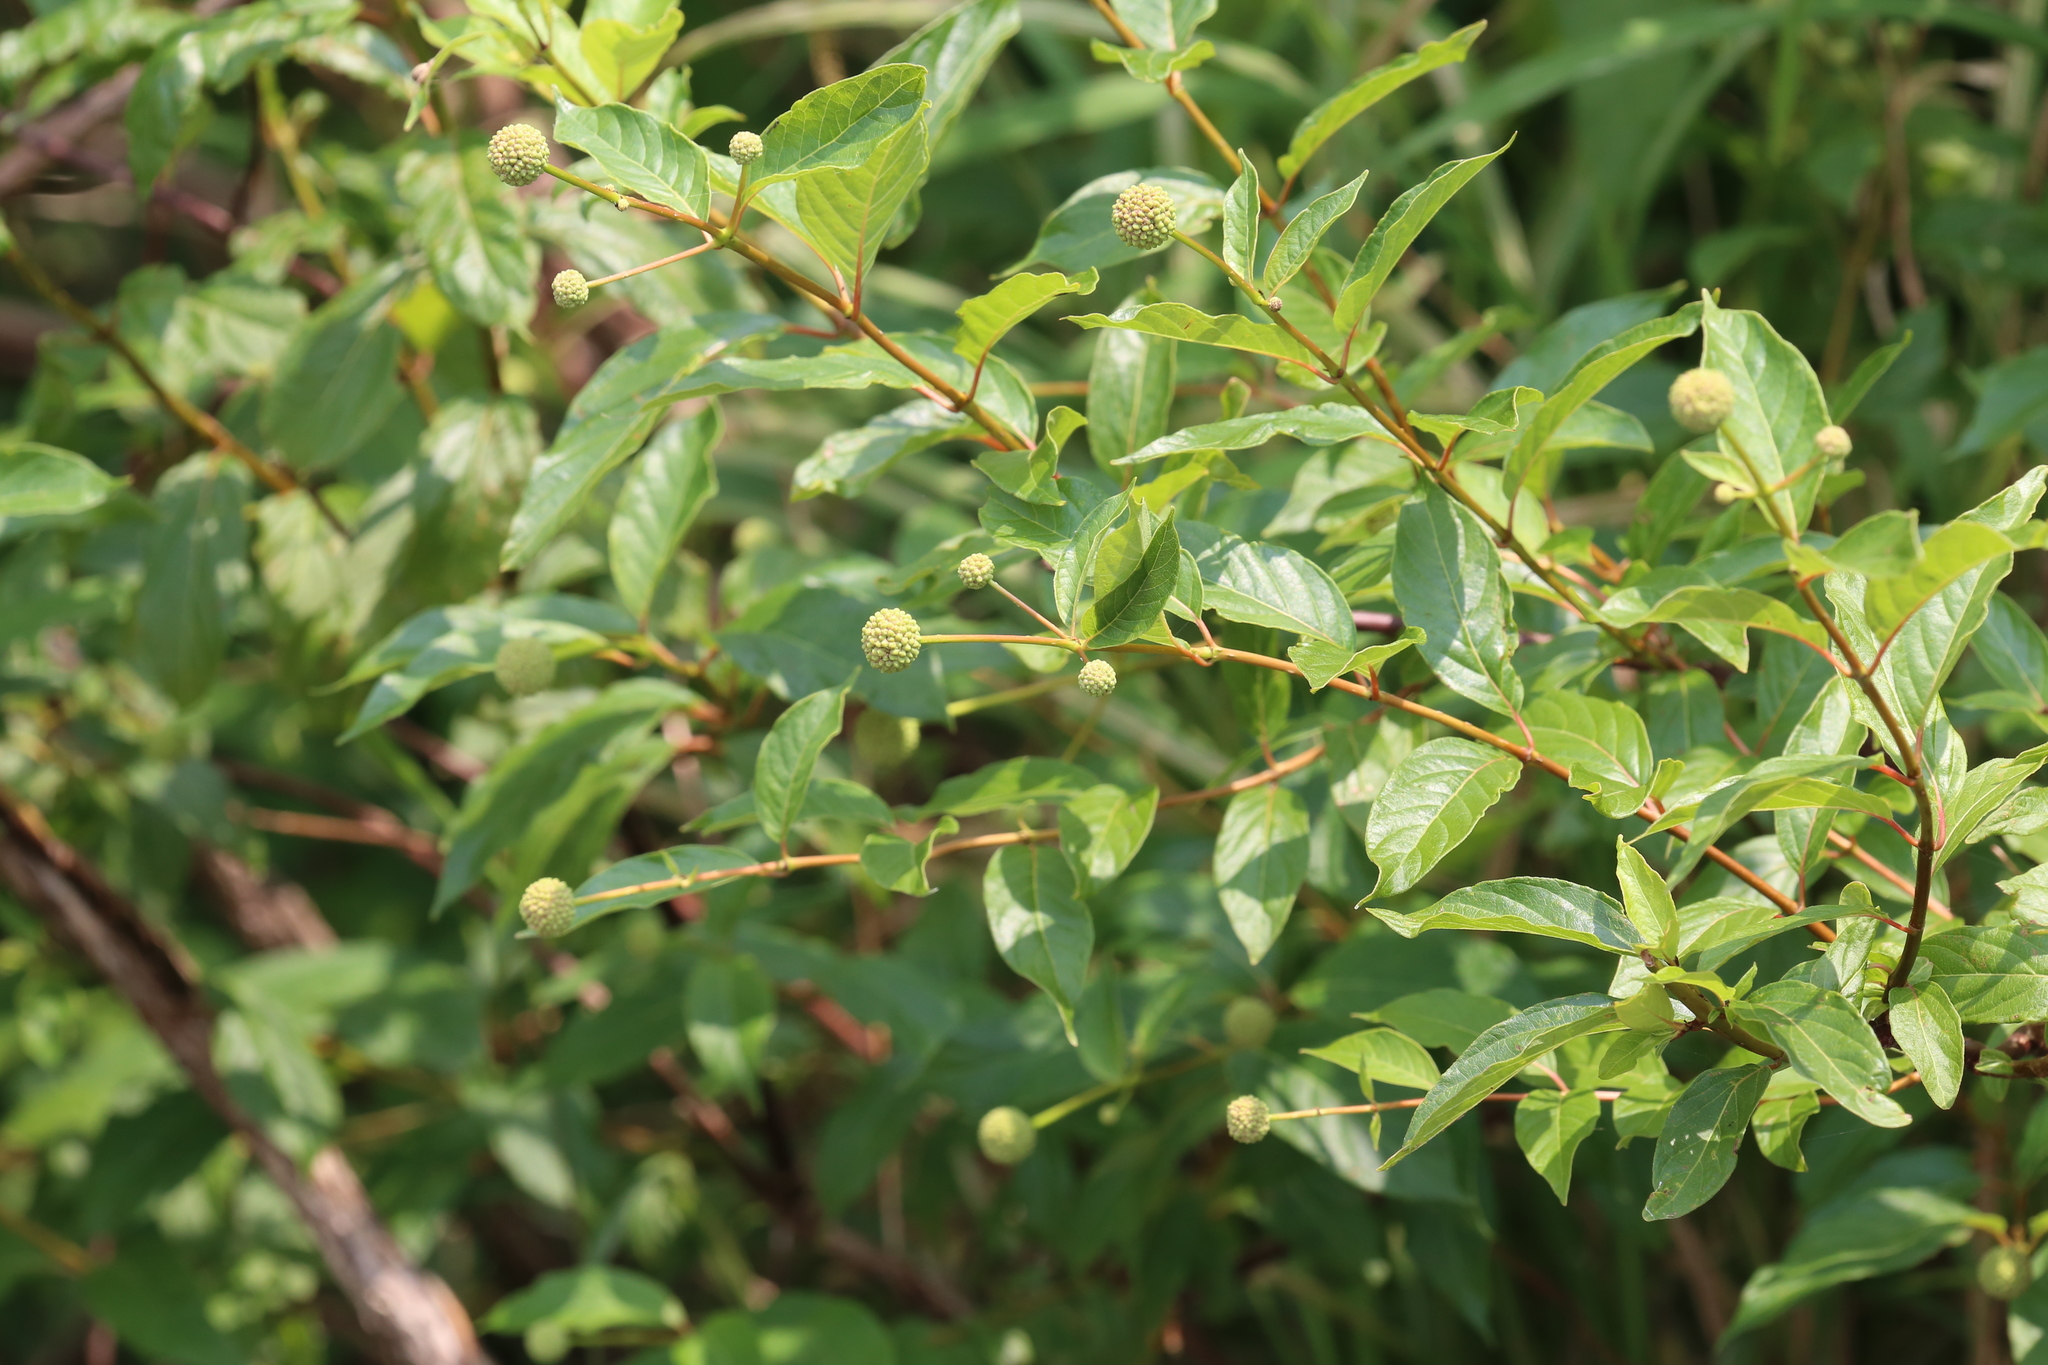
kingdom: Plantae
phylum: Tracheophyta
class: Magnoliopsida
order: Gentianales
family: Rubiaceae
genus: Cephalanthus
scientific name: Cephalanthus occidentalis
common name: Button-willow
